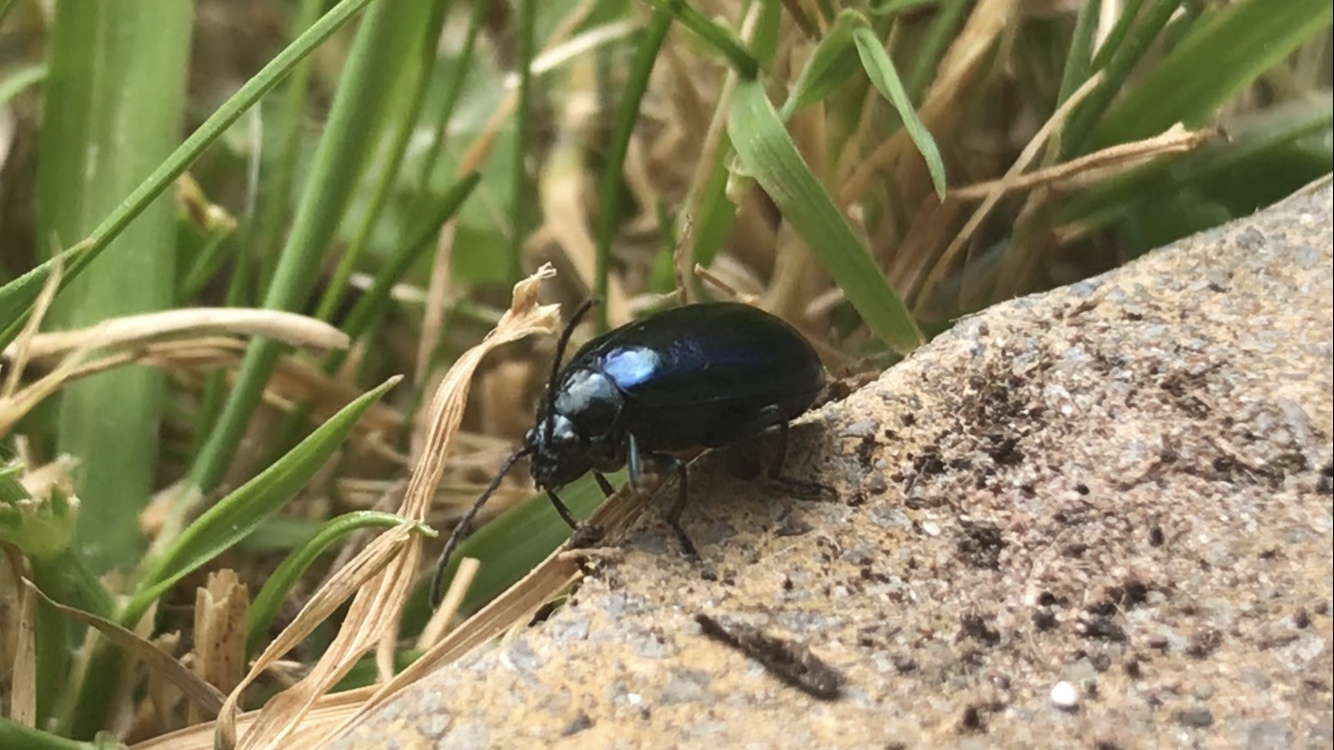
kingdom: Animalia
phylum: Arthropoda
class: Insecta
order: Coleoptera
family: Chrysomelidae
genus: Agelastica
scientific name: Agelastica alni
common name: Alder leaf beetle
